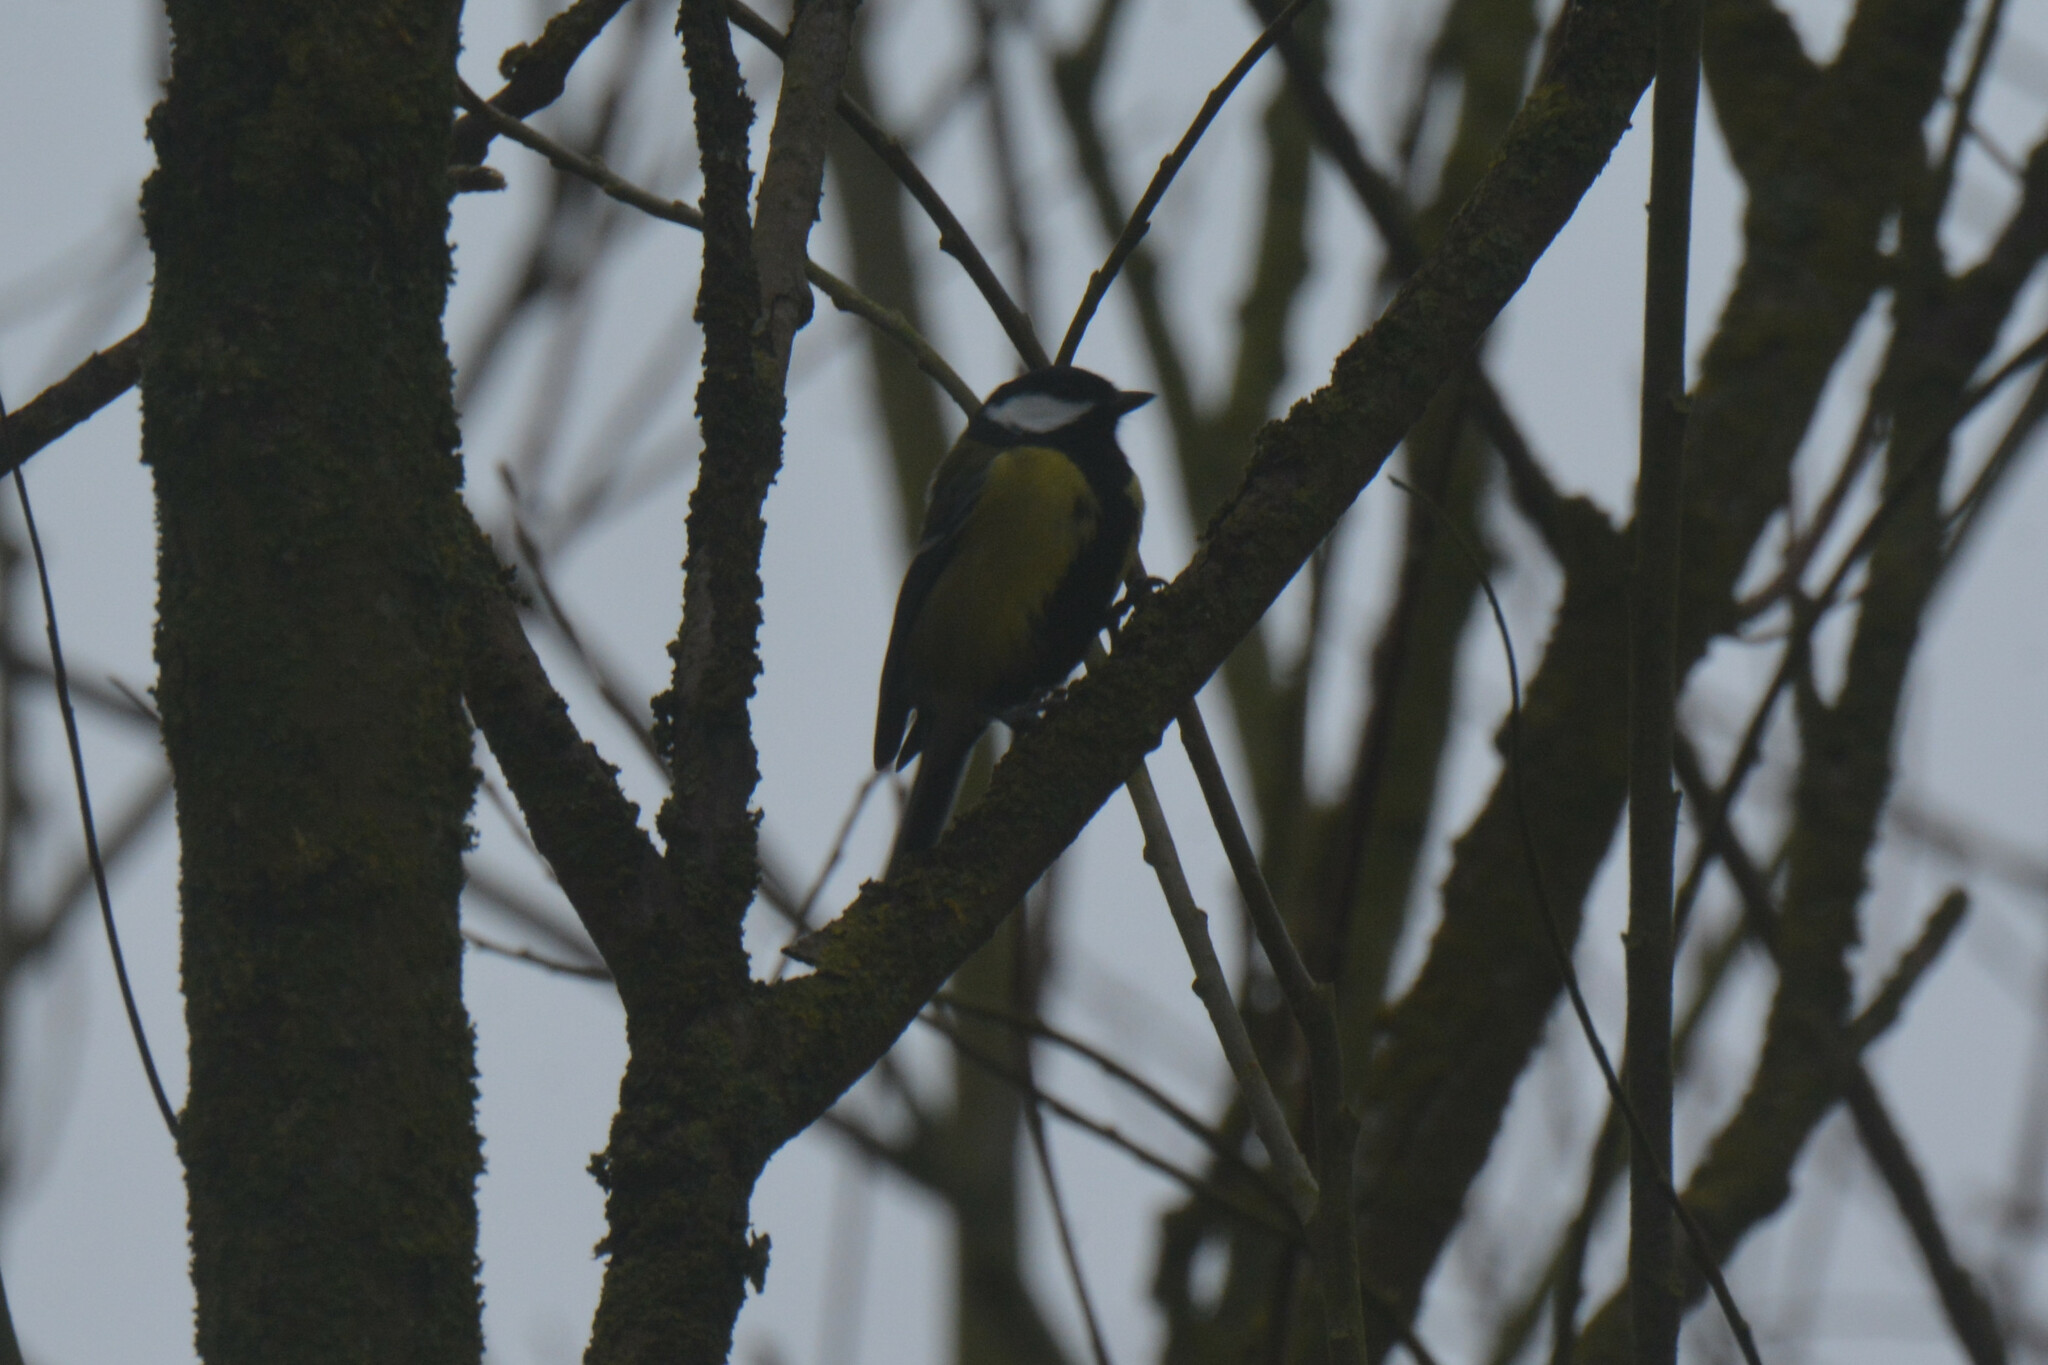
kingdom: Animalia
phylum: Chordata
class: Aves
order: Passeriformes
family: Paridae
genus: Parus
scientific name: Parus major
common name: Great tit
